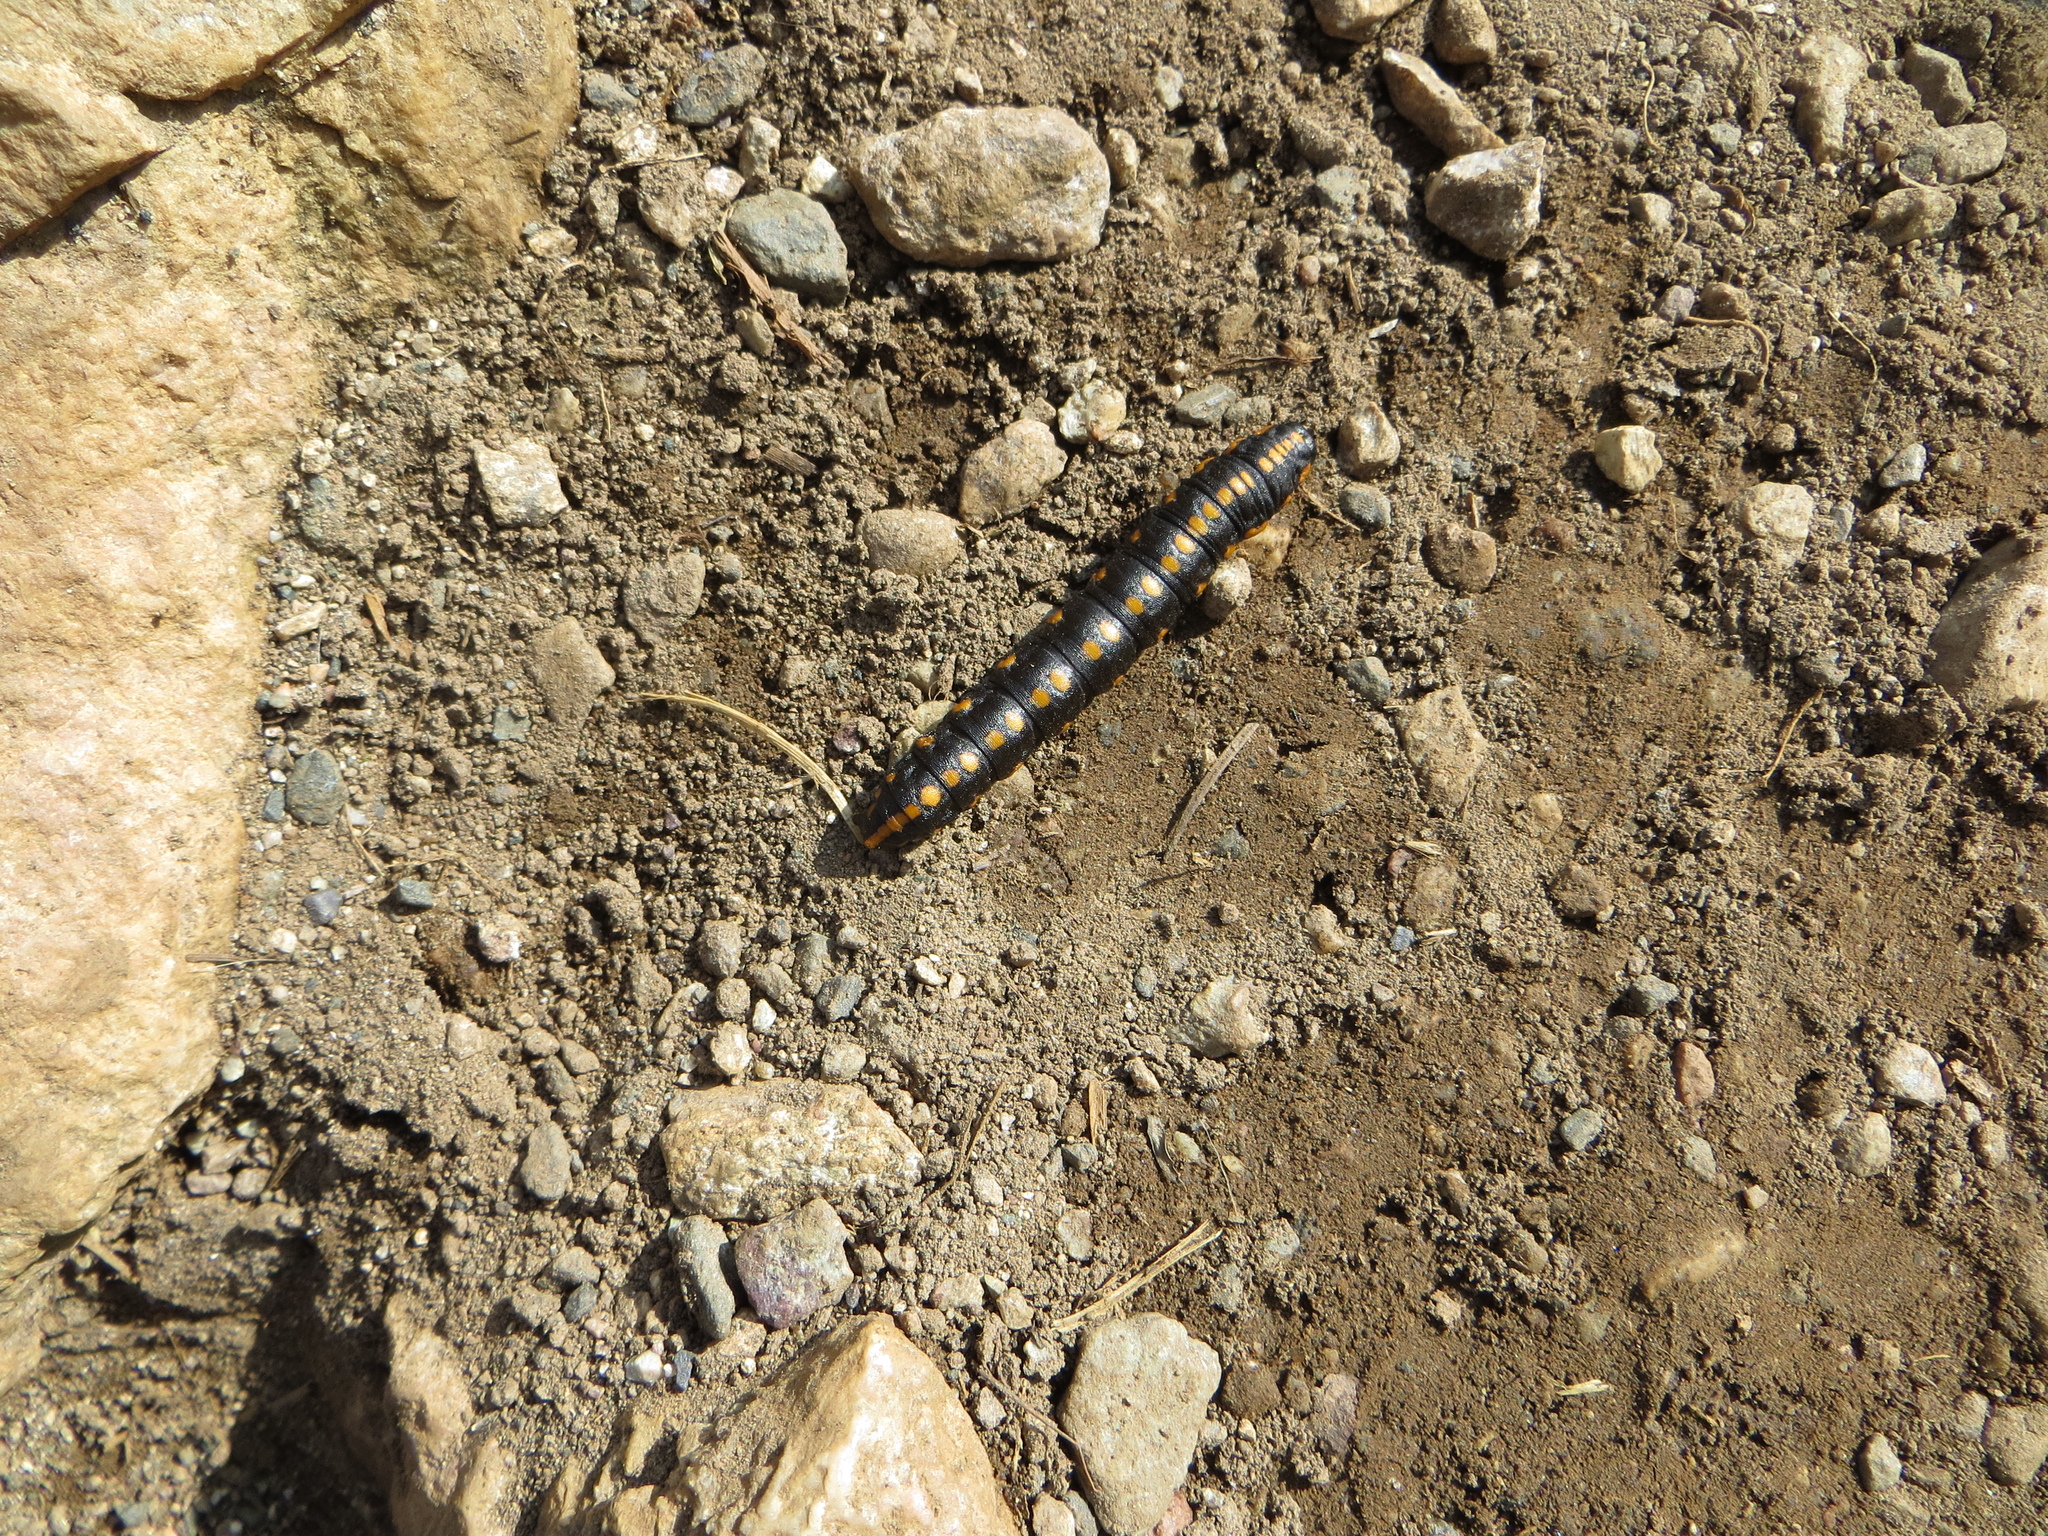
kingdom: Animalia
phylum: Arthropoda
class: Insecta
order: Lepidoptera
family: Noctuidae
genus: Cucullia
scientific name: Cucullia lucifuga
